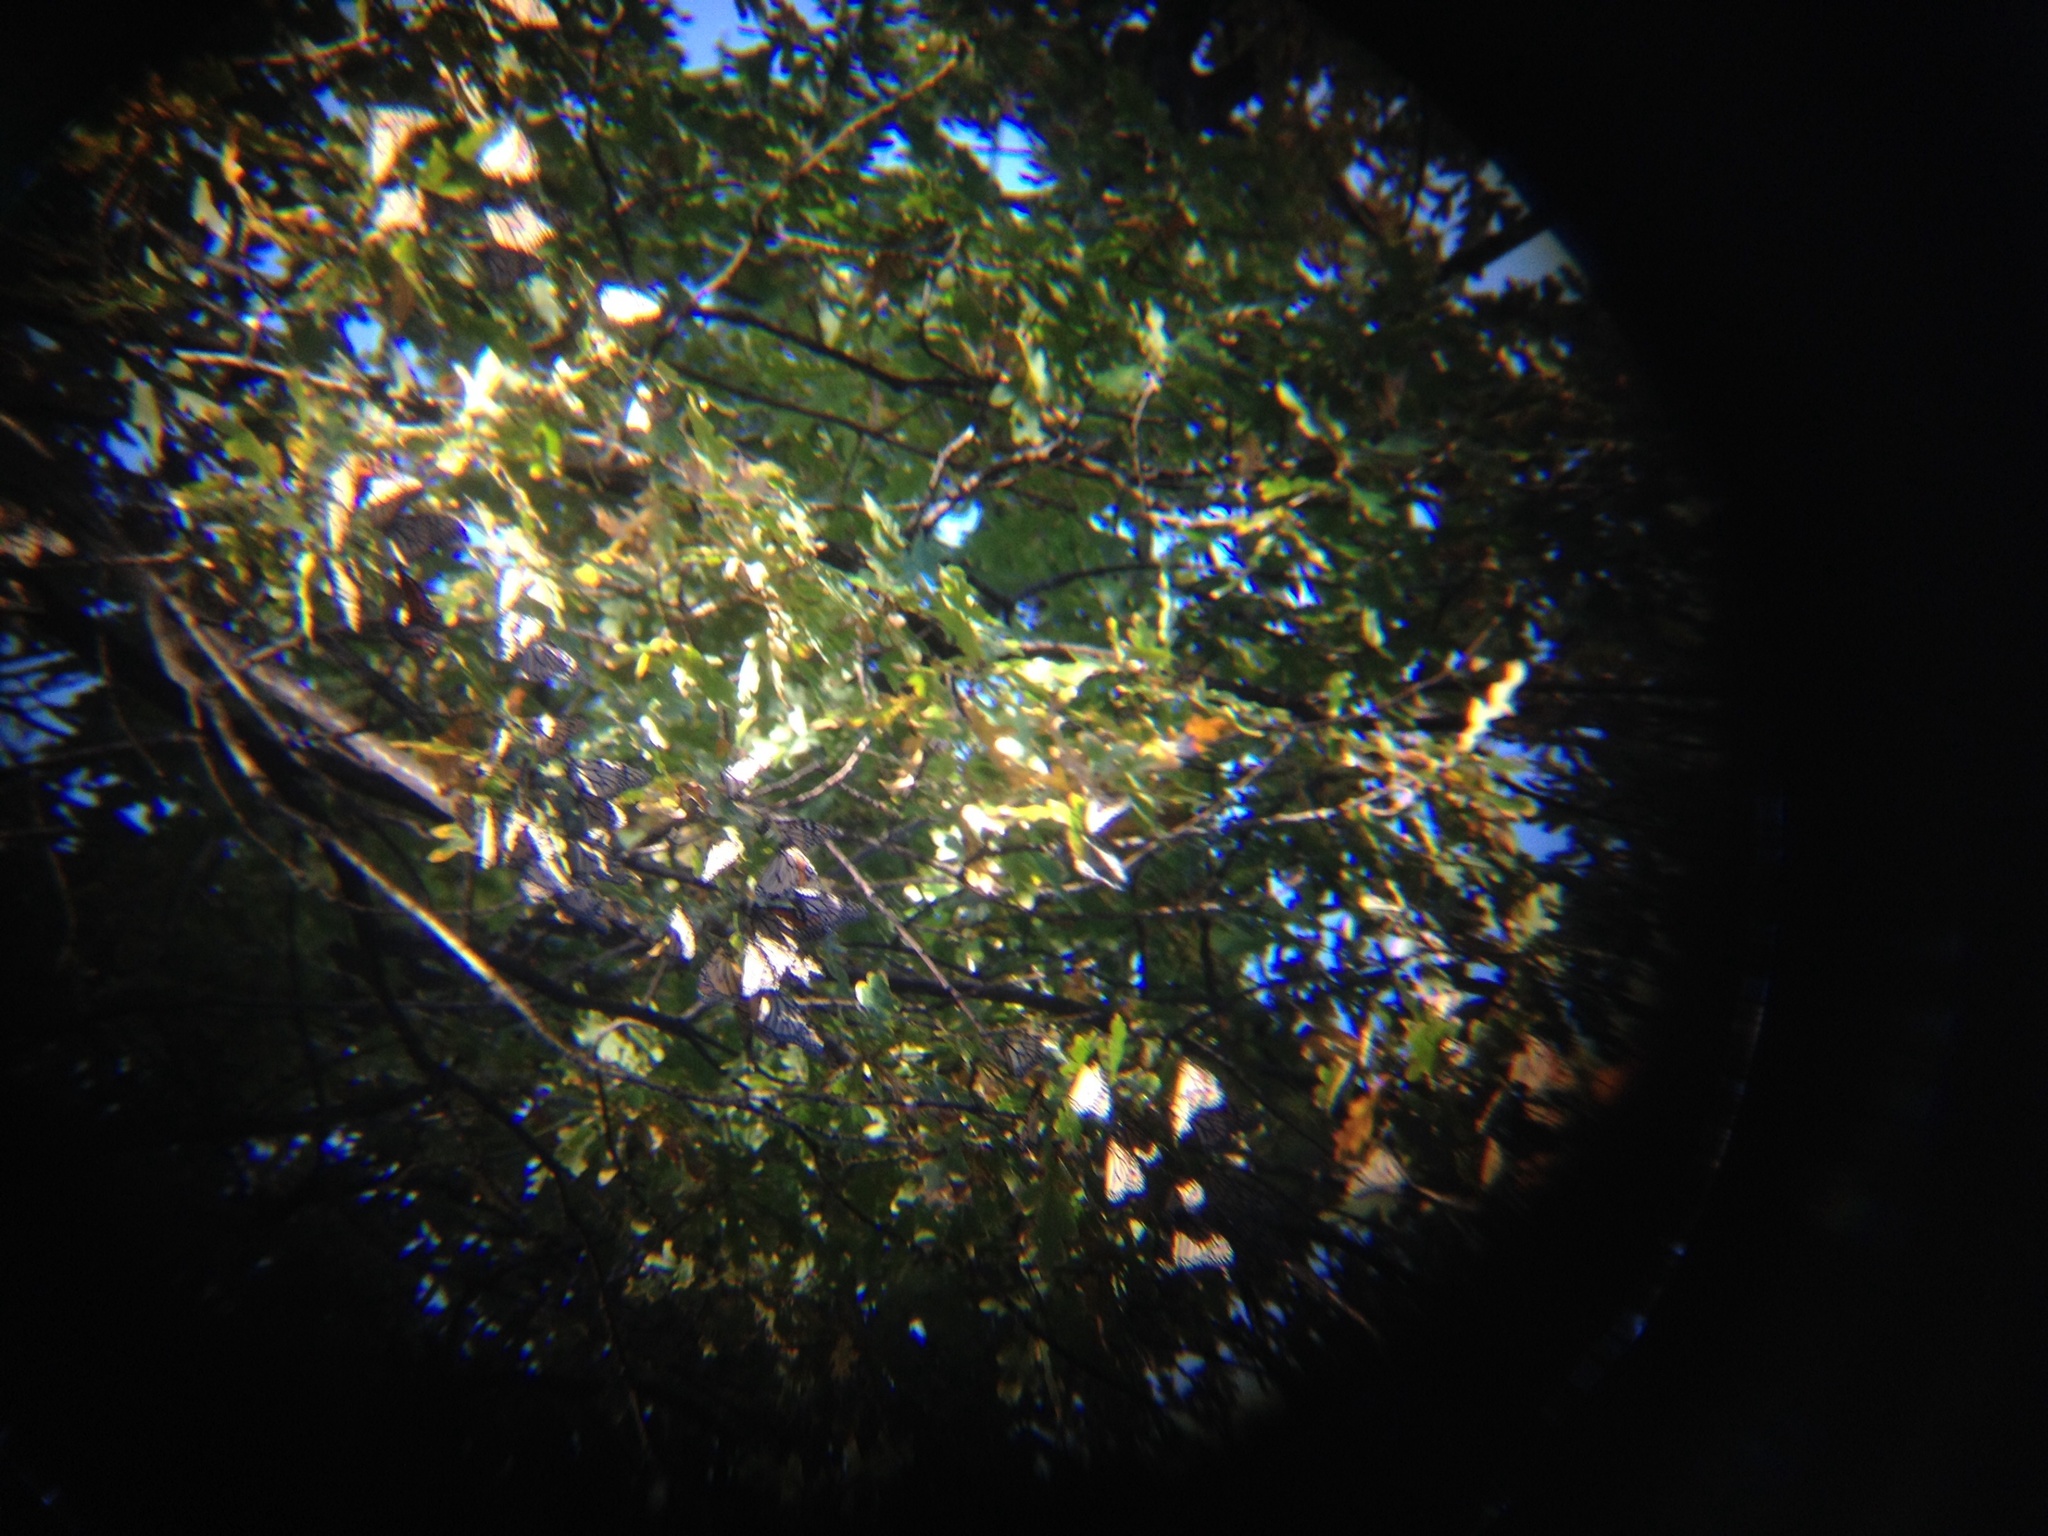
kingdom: Animalia
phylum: Arthropoda
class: Insecta
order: Lepidoptera
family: Nymphalidae
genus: Danaus
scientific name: Danaus plexippus
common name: Monarch
